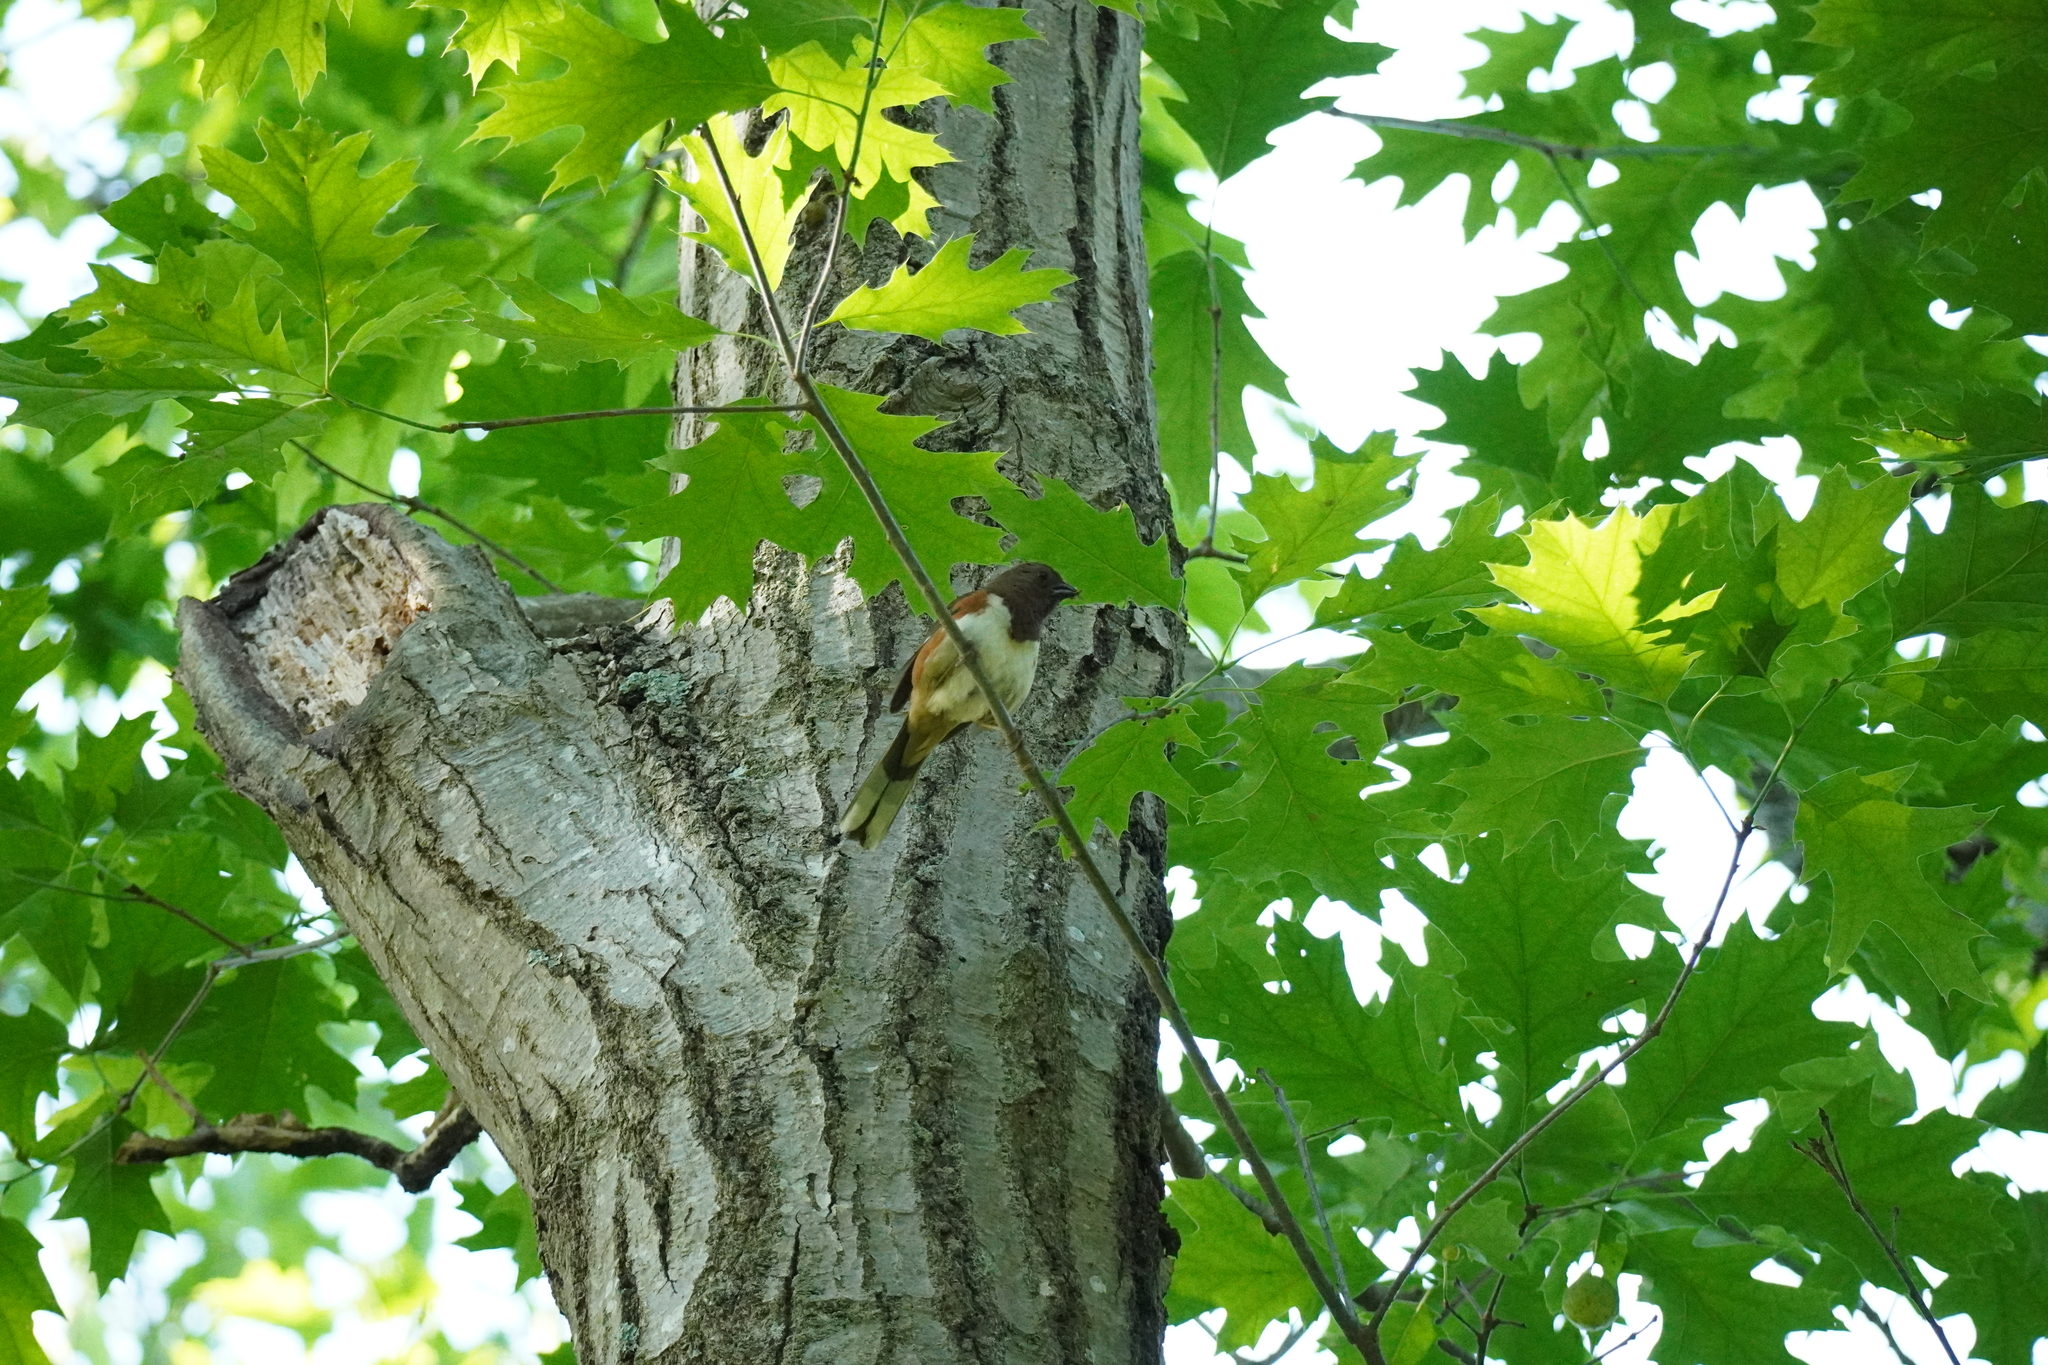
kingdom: Animalia
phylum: Chordata
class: Aves
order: Passeriformes
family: Passerellidae
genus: Pipilo
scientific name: Pipilo erythrophthalmus
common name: Eastern towhee
